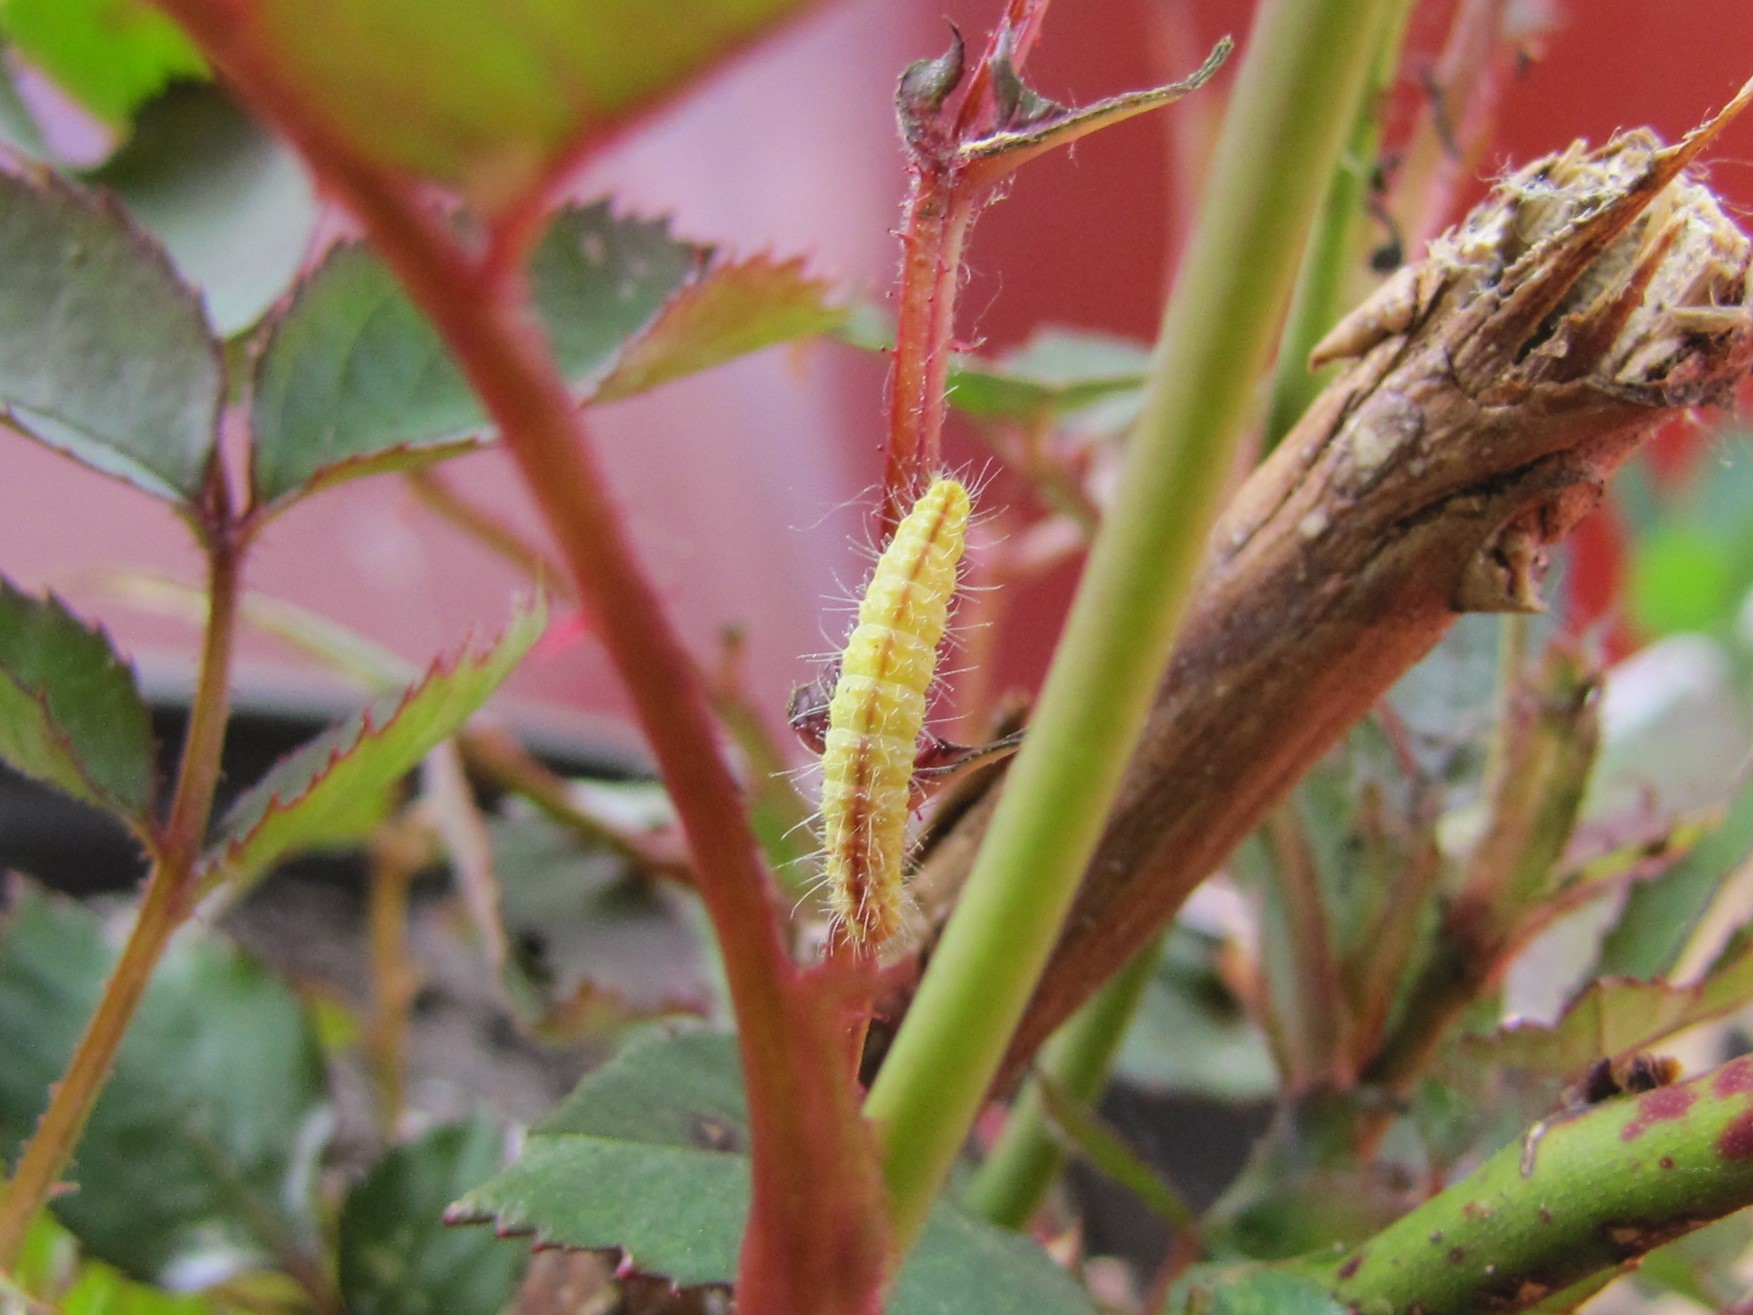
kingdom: Animalia
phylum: Arthropoda
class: Insecta
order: Lepidoptera
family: Pterophoridae
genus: Cnaemidophorus
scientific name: Cnaemidophorus rhododactyla
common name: Rose plume
